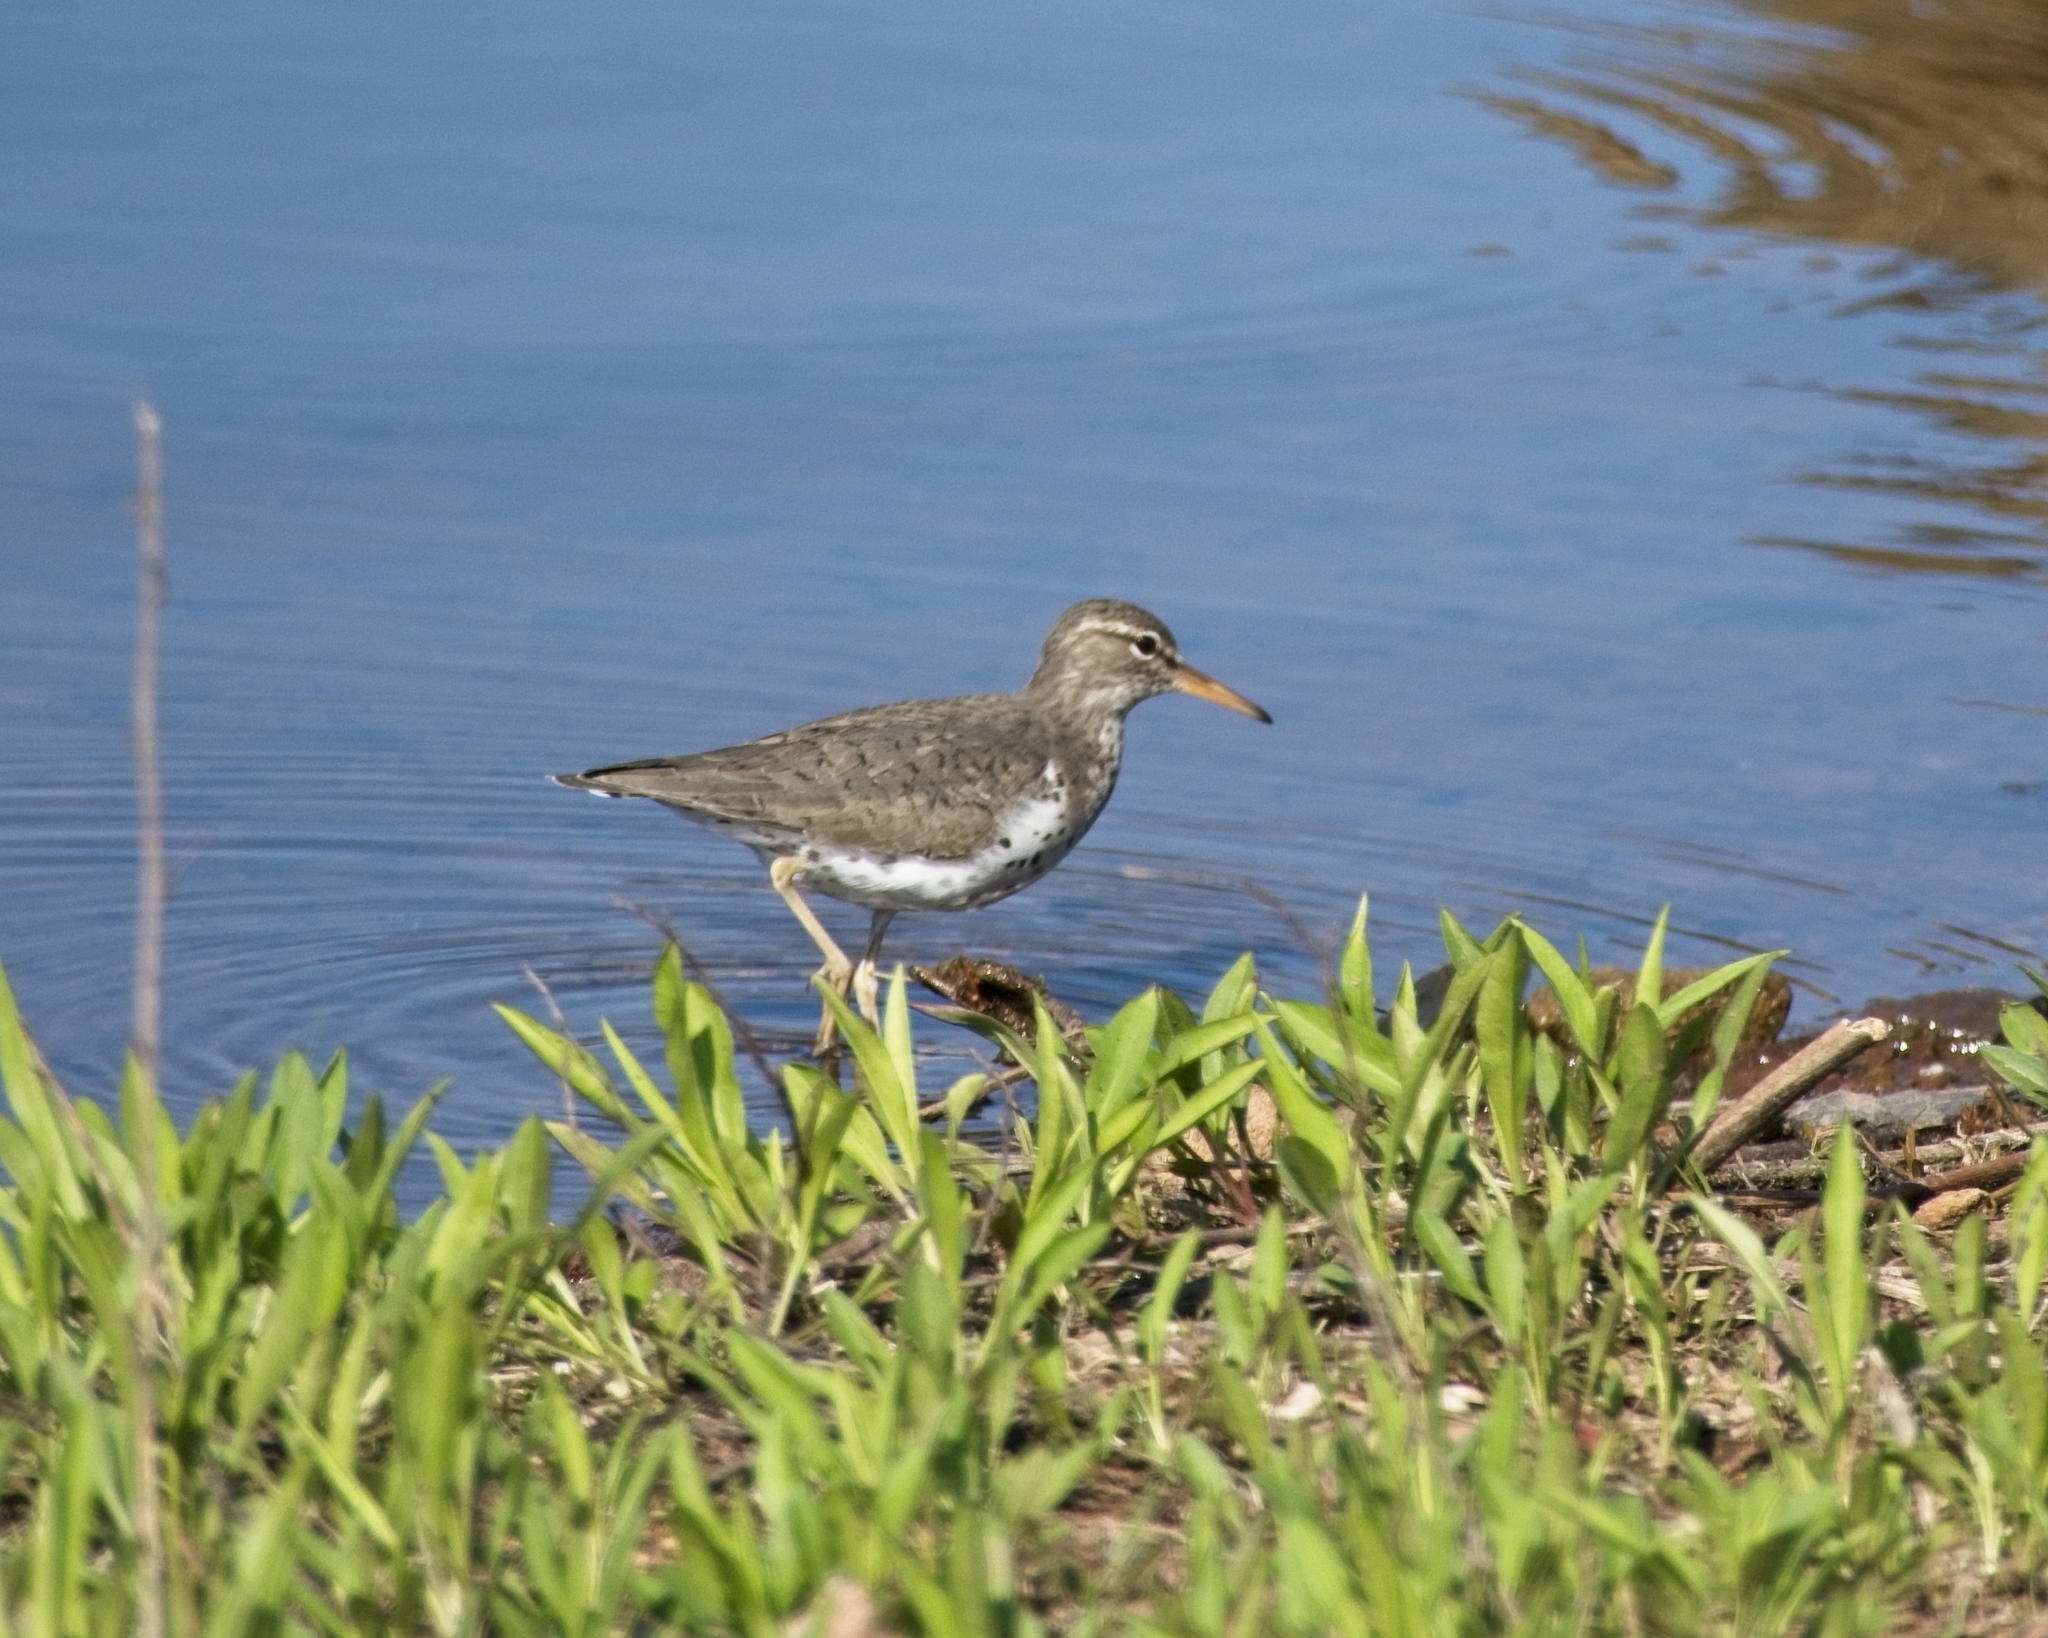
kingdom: Animalia
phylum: Chordata
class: Aves
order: Charadriiformes
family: Scolopacidae
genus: Actitis
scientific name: Actitis macularius
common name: Spotted sandpiper
